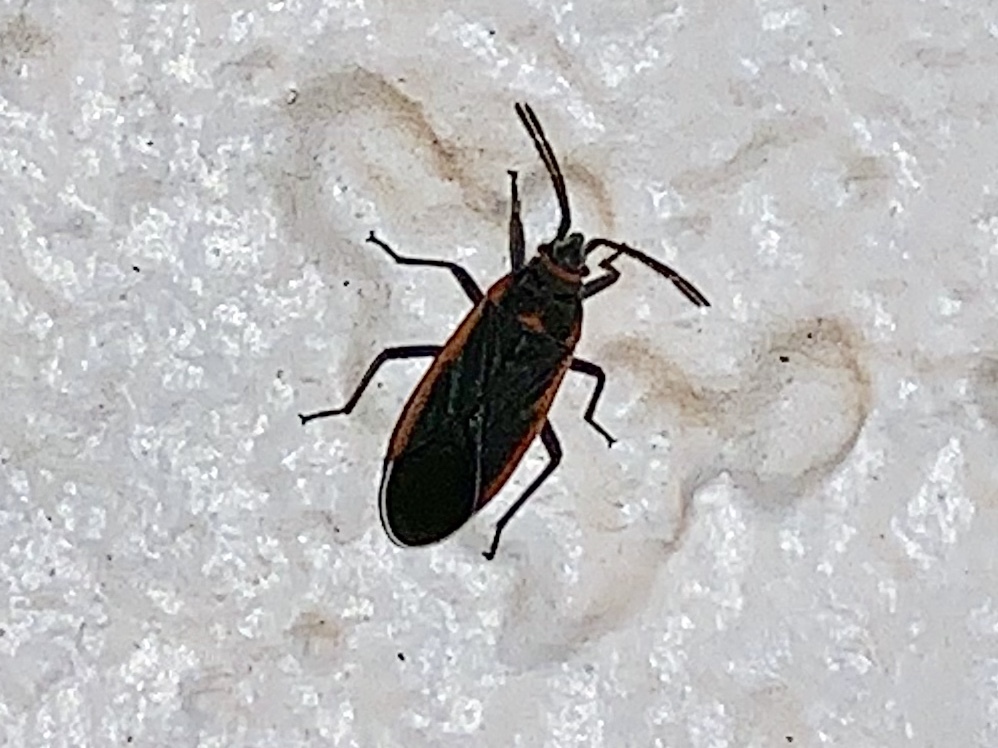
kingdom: Animalia
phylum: Arthropoda
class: Insecta
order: Hemiptera
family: Lygaeidae
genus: Melacoryphus
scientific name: Melacoryphus lateralis
